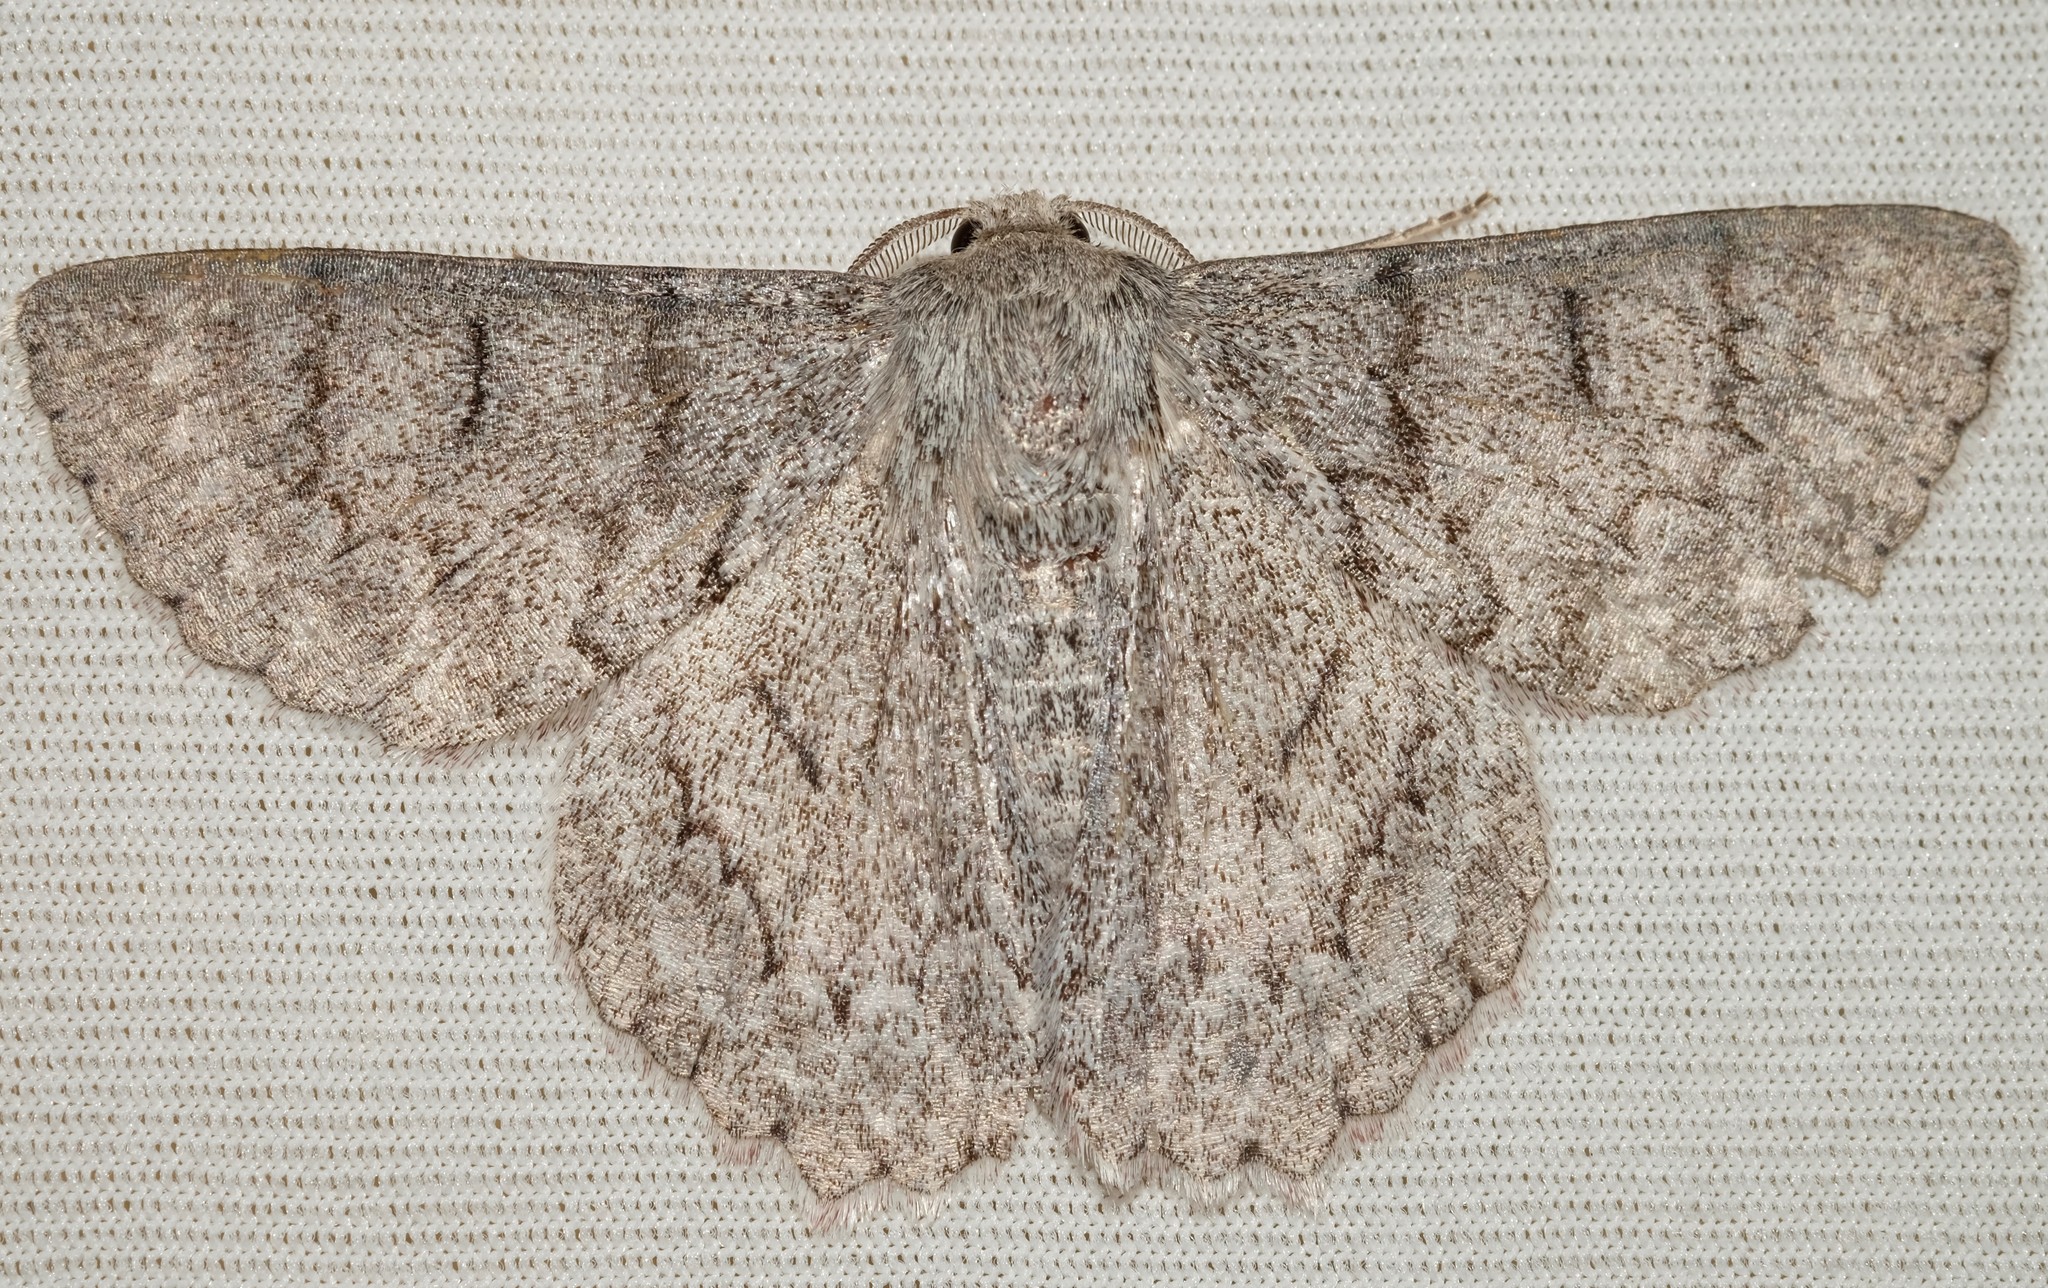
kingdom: Animalia
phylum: Arthropoda
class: Insecta
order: Lepidoptera
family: Geometridae
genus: Crypsiphona
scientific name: Crypsiphona ocultaria
